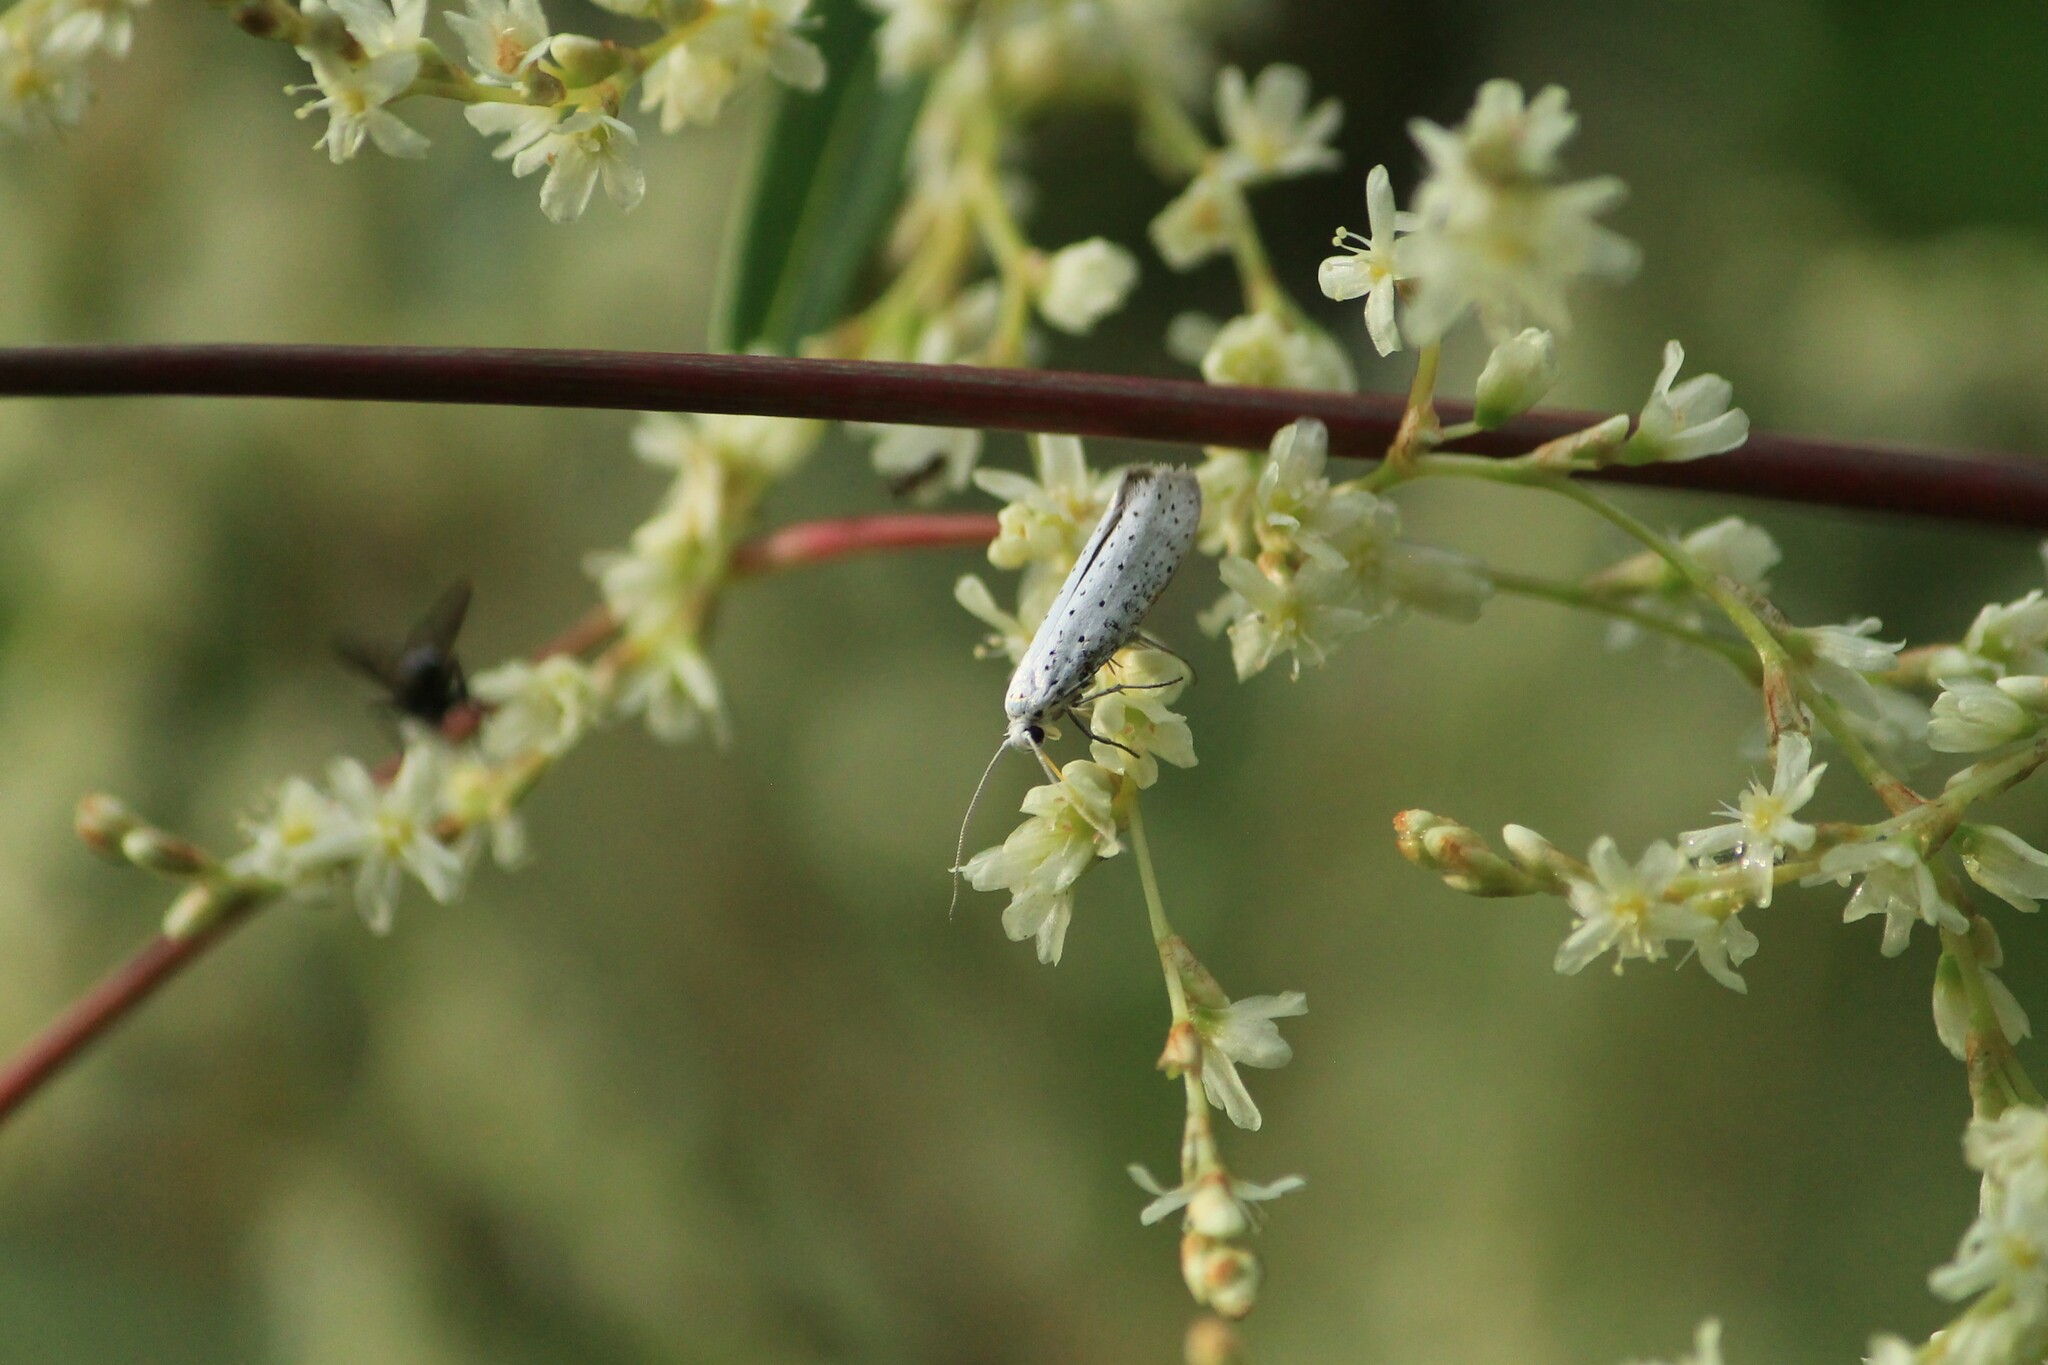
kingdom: Animalia
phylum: Arthropoda
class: Insecta
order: Lepidoptera
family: Yponomeutidae
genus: Yponomeuta
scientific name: Yponomeuta evonymella
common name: Bird-cherry ermine
